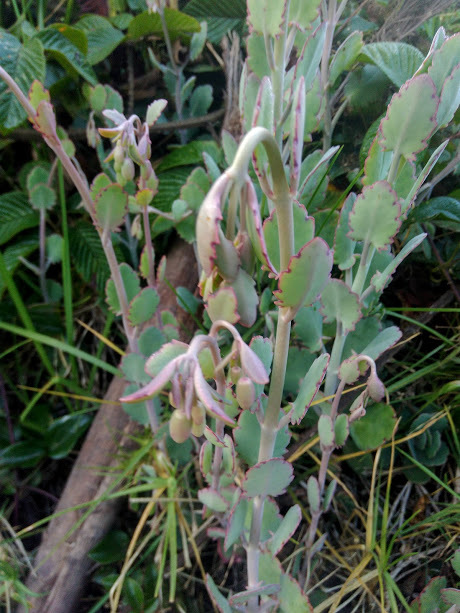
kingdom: Plantae
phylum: Tracheophyta
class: Magnoliopsida
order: Saxifragales
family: Crassulaceae
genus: Kalanchoe
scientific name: Kalanchoe laxiflora
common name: Milky widow's thrill
